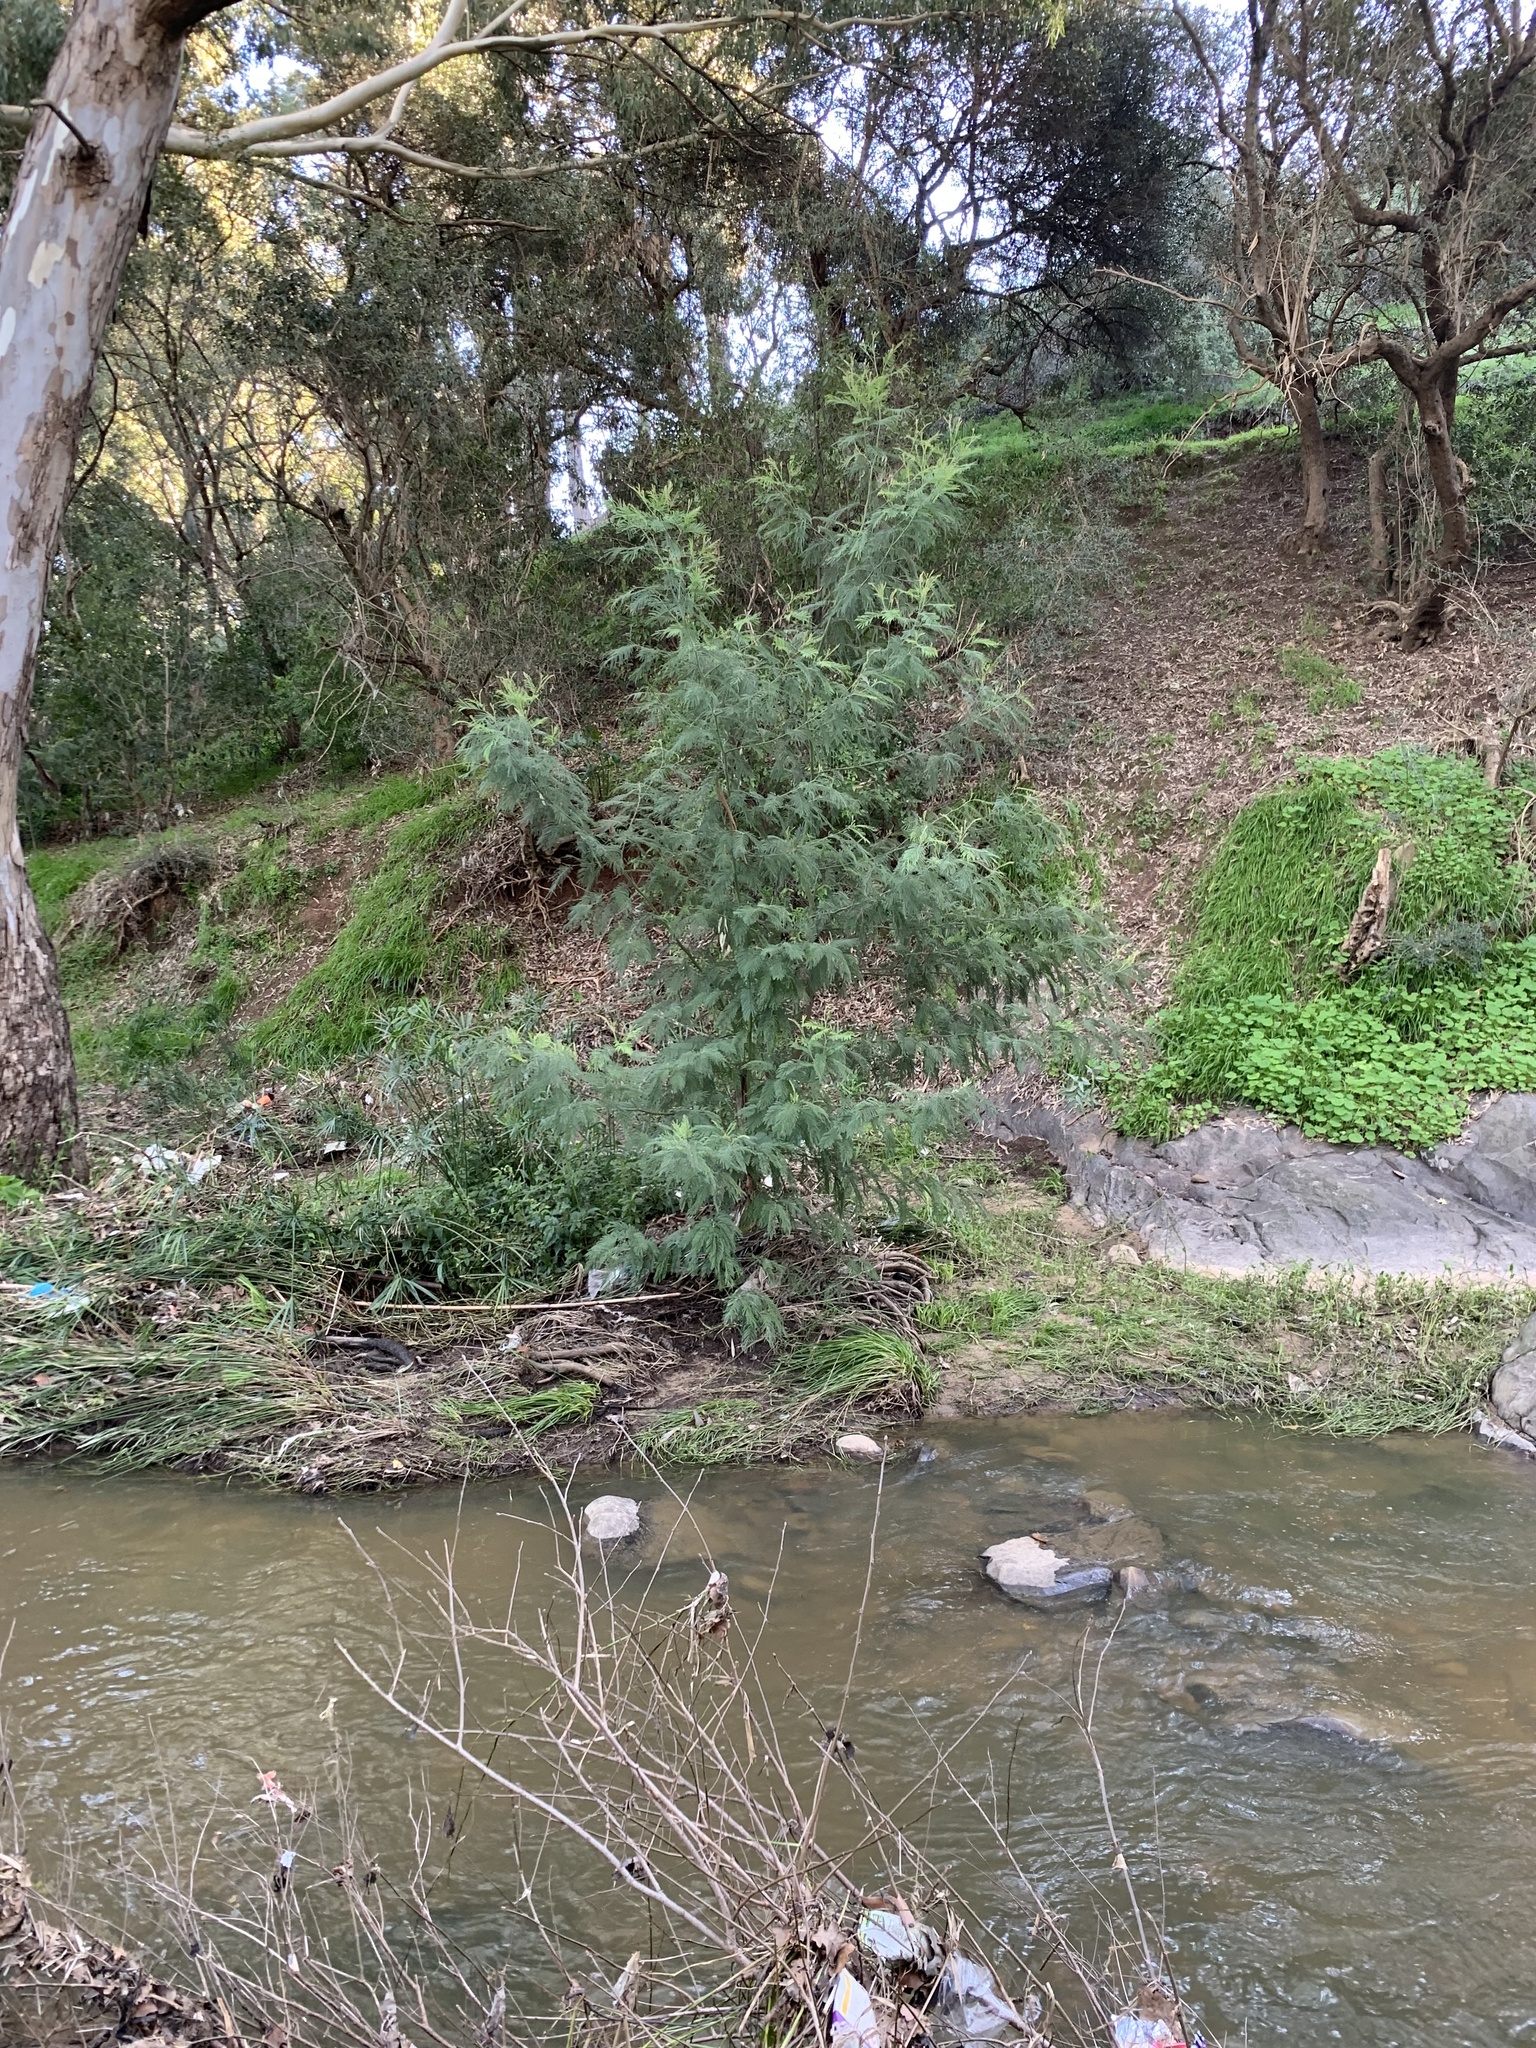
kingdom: Plantae
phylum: Tracheophyta
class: Magnoliopsida
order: Fabales
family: Fabaceae
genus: Acacia
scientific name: Acacia mearnsii
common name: Black wattle
